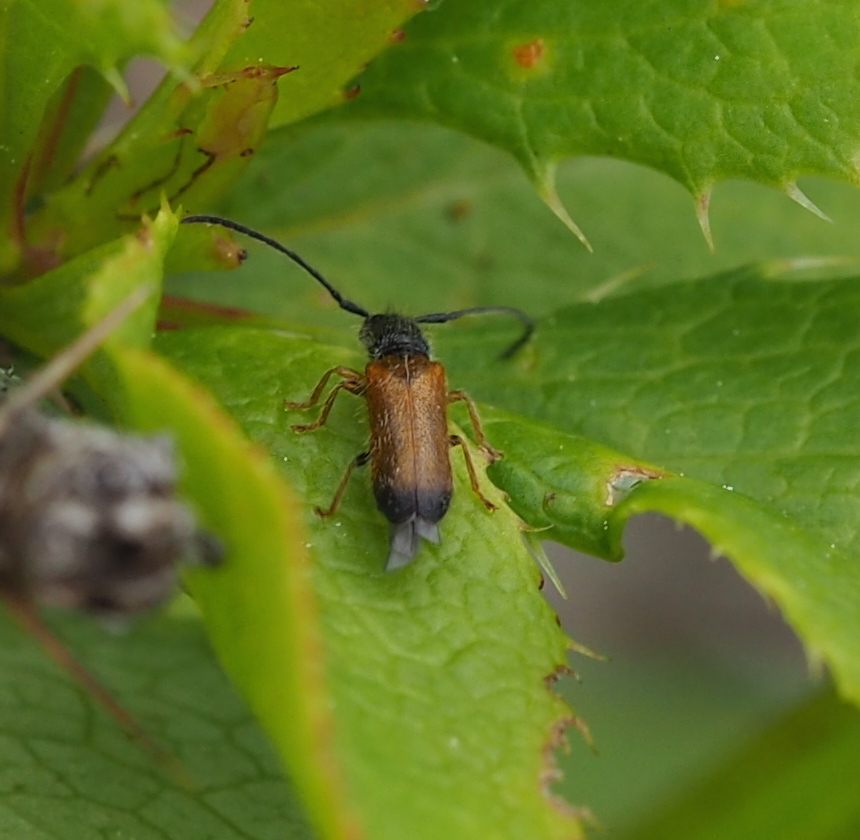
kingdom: Animalia
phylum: Arthropoda
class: Insecta
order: Coleoptera
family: Cerambycidae
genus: Tetrops
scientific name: Tetrops praeustus
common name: Plum beetle
